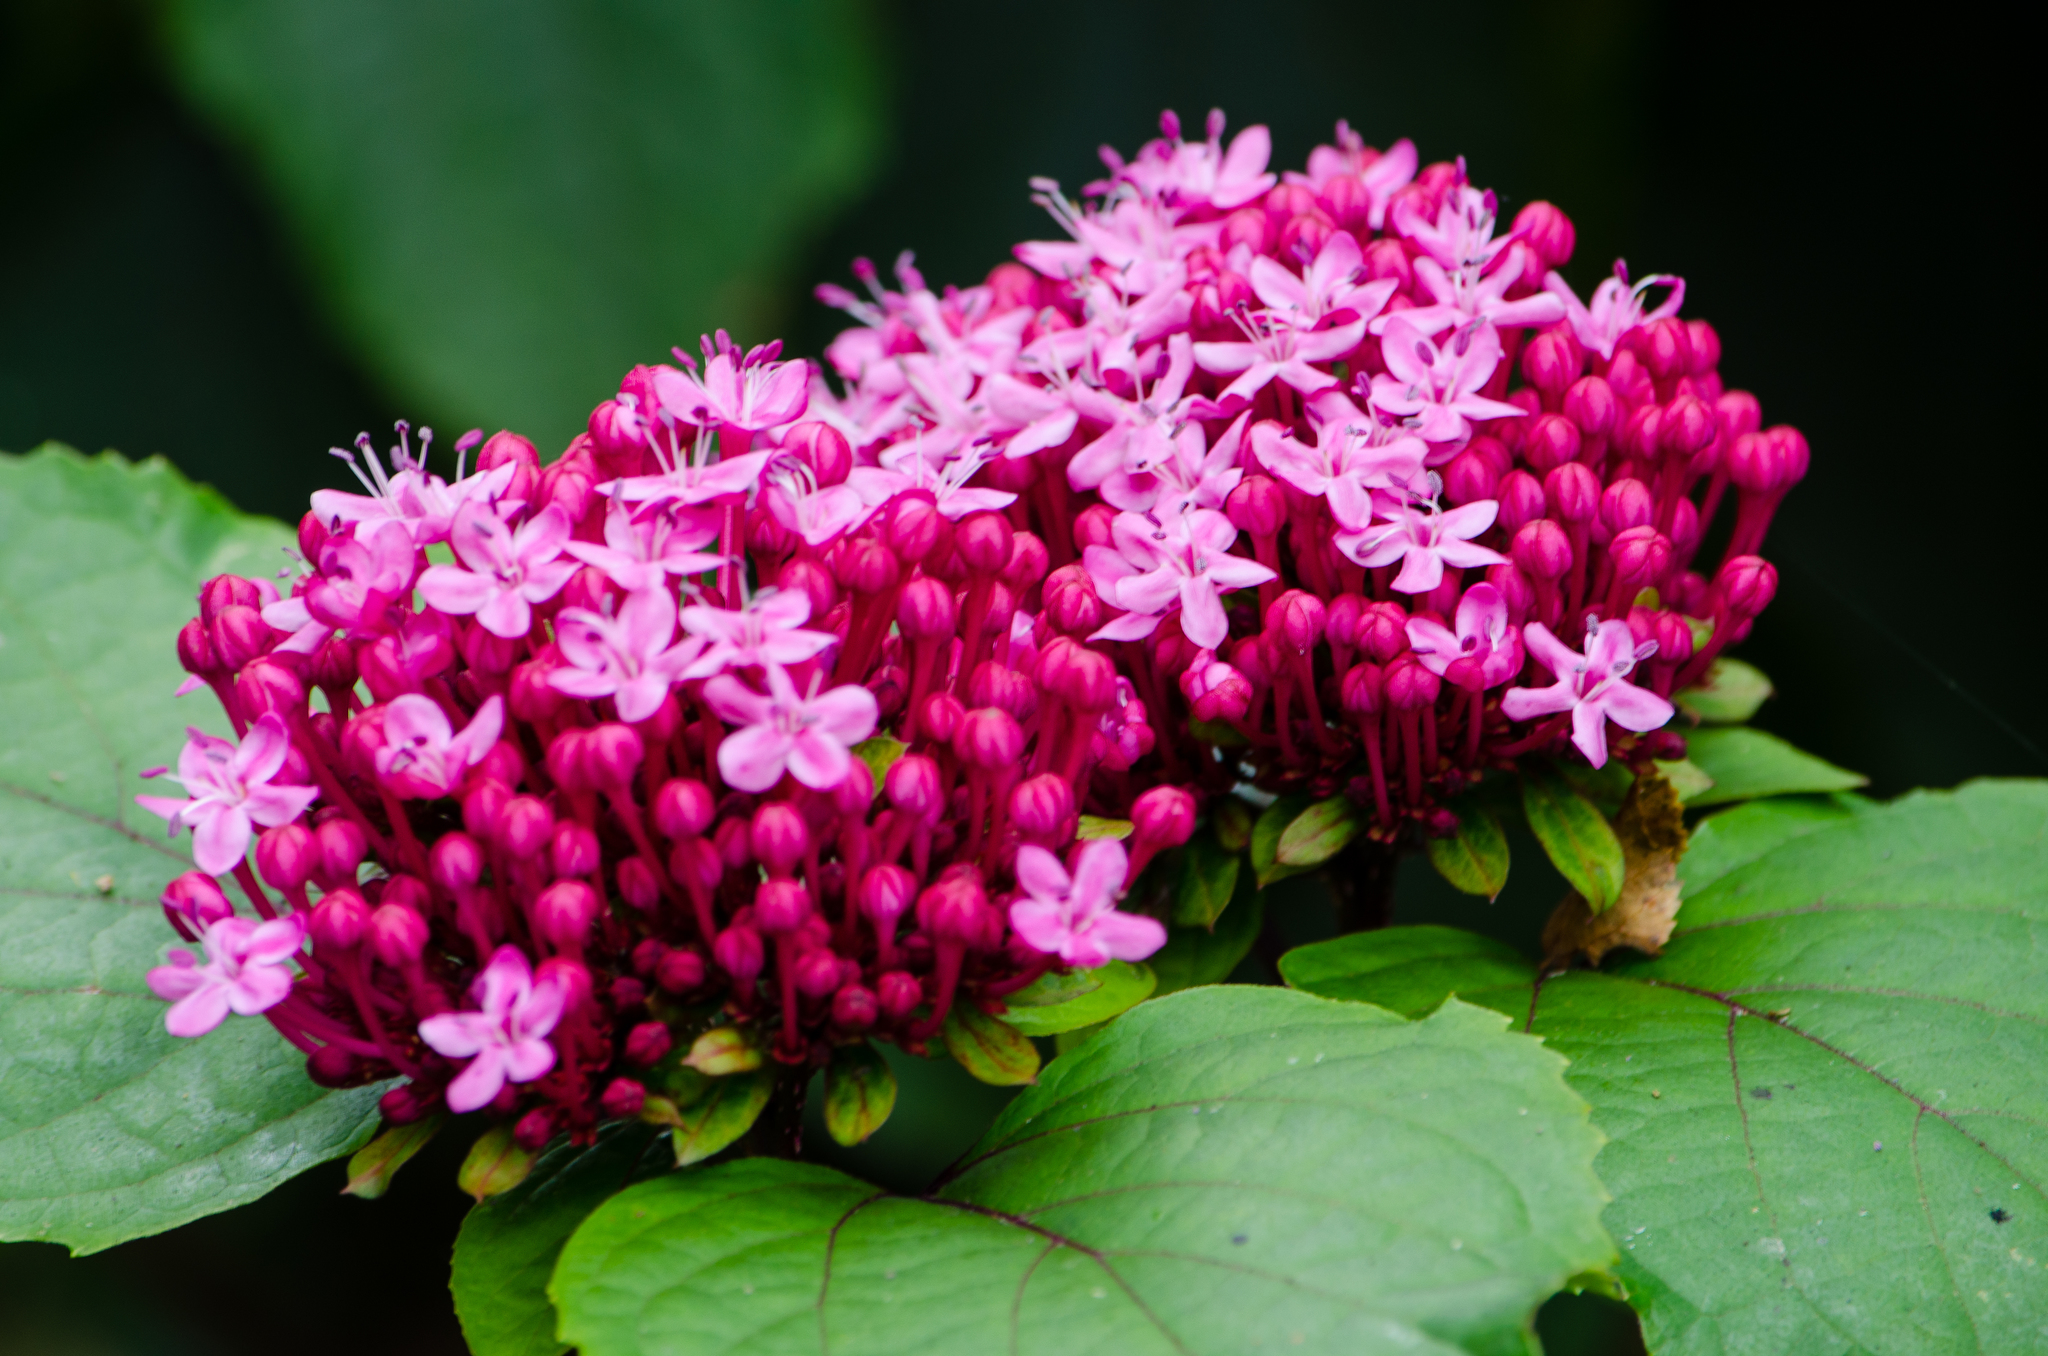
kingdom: Plantae
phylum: Tracheophyta
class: Magnoliopsida
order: Lamiales
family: Lamiaceae
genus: Clerodendrum
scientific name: Clerodendrum bungei
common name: Rose glorybower
